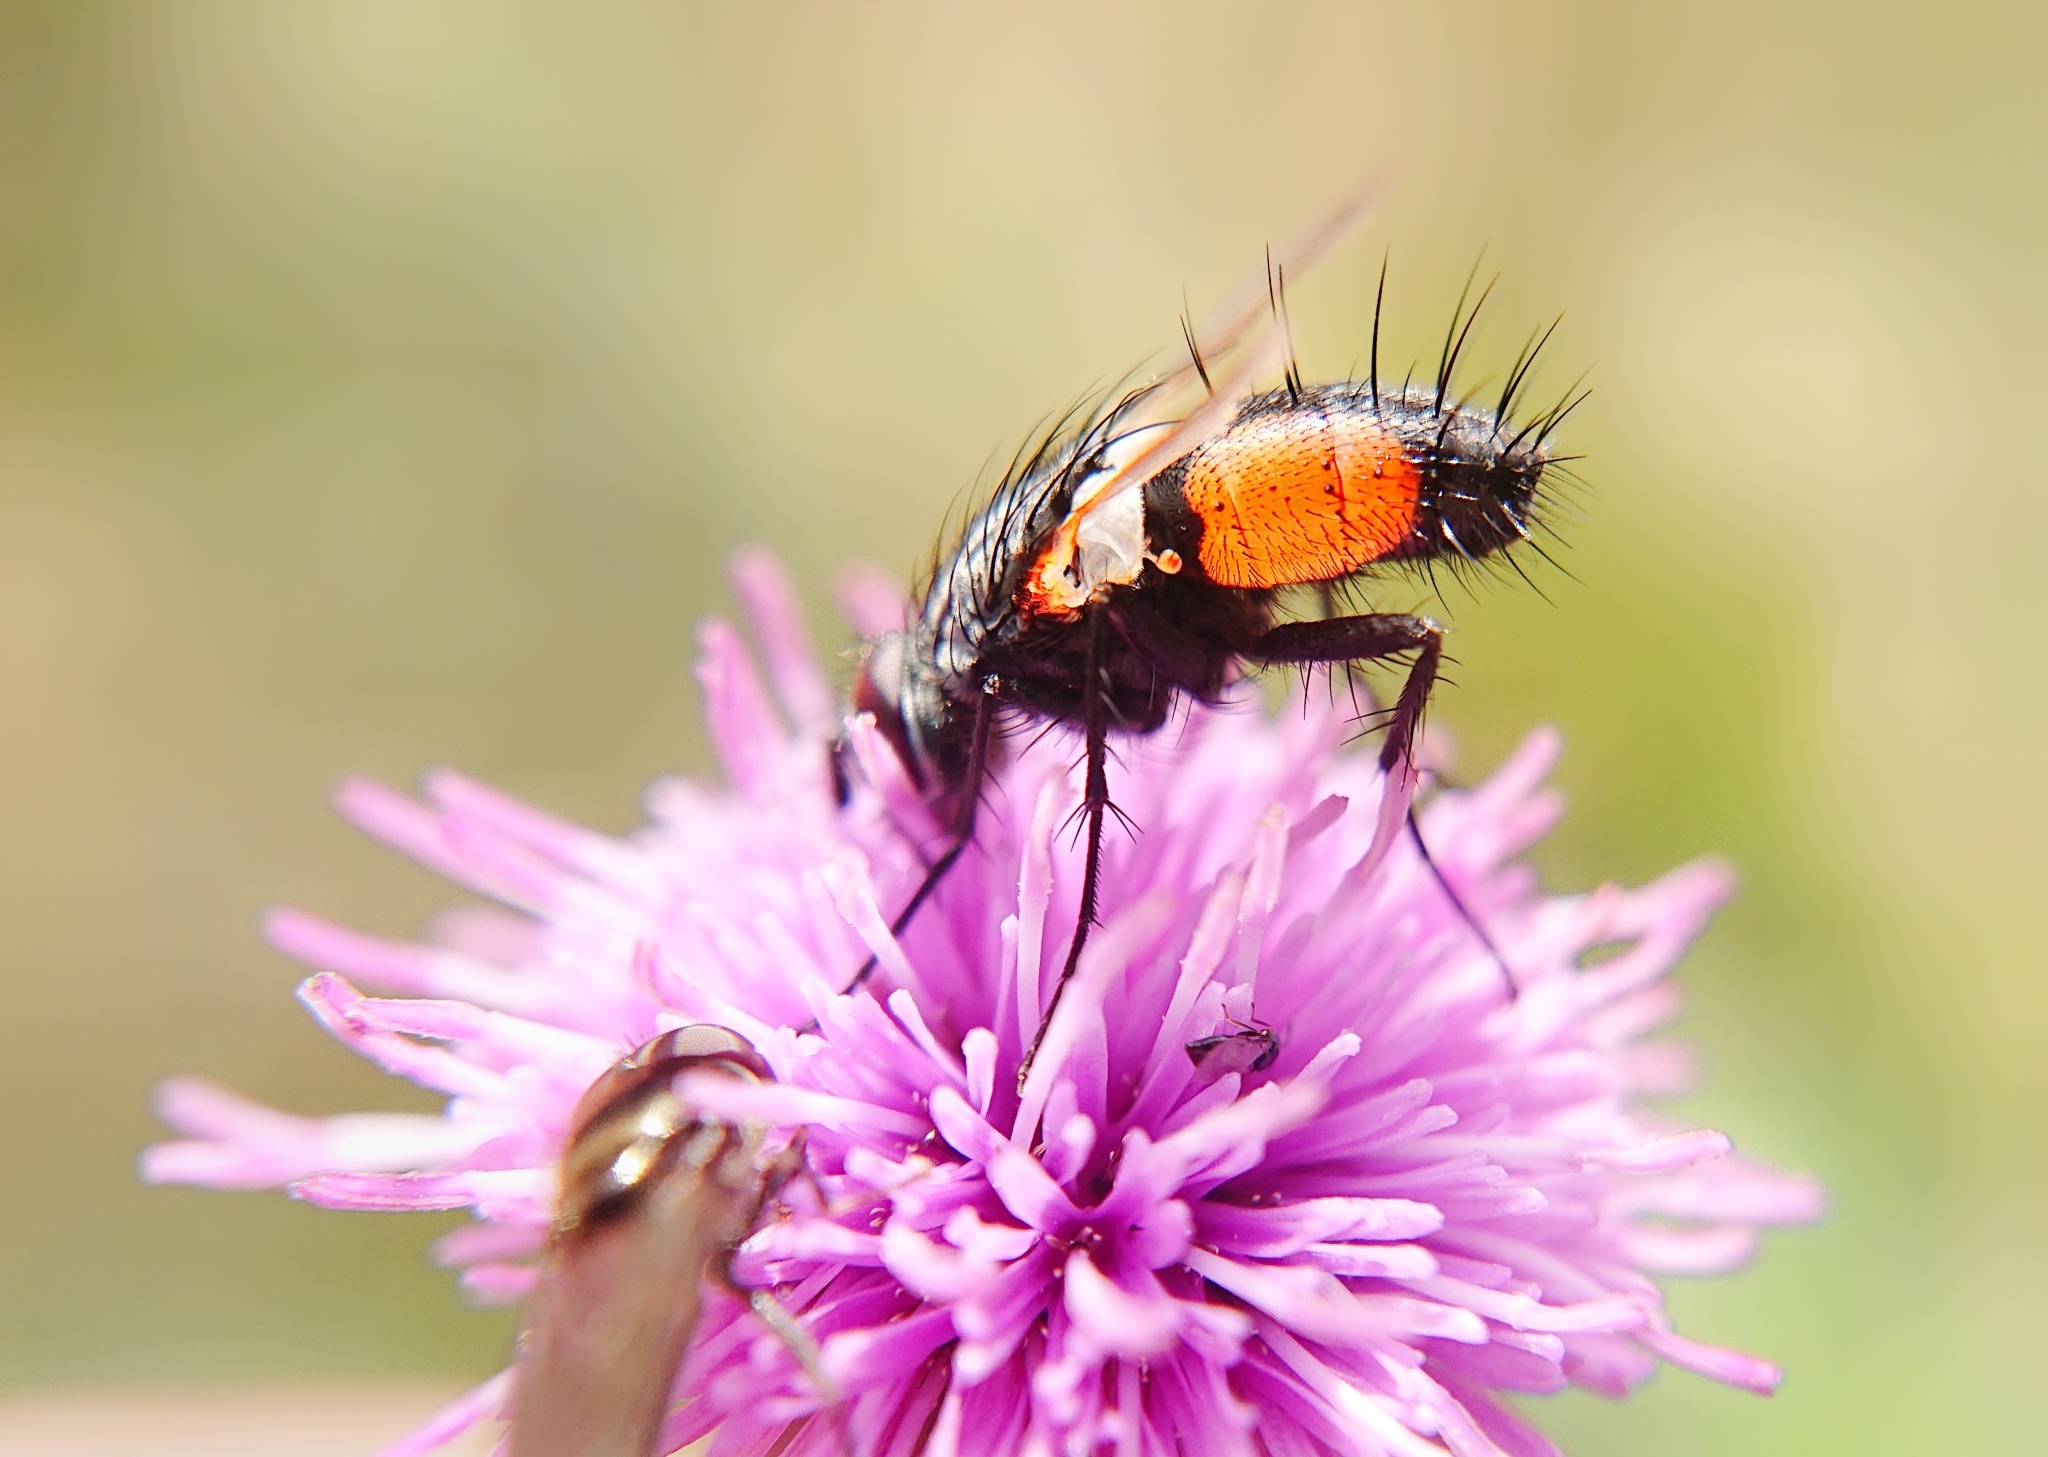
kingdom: Animalia
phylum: Arthropoda
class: Insecta
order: Diptera
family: Tachinidae
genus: Eriothrix
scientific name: Eriothrix rufomaculatus
